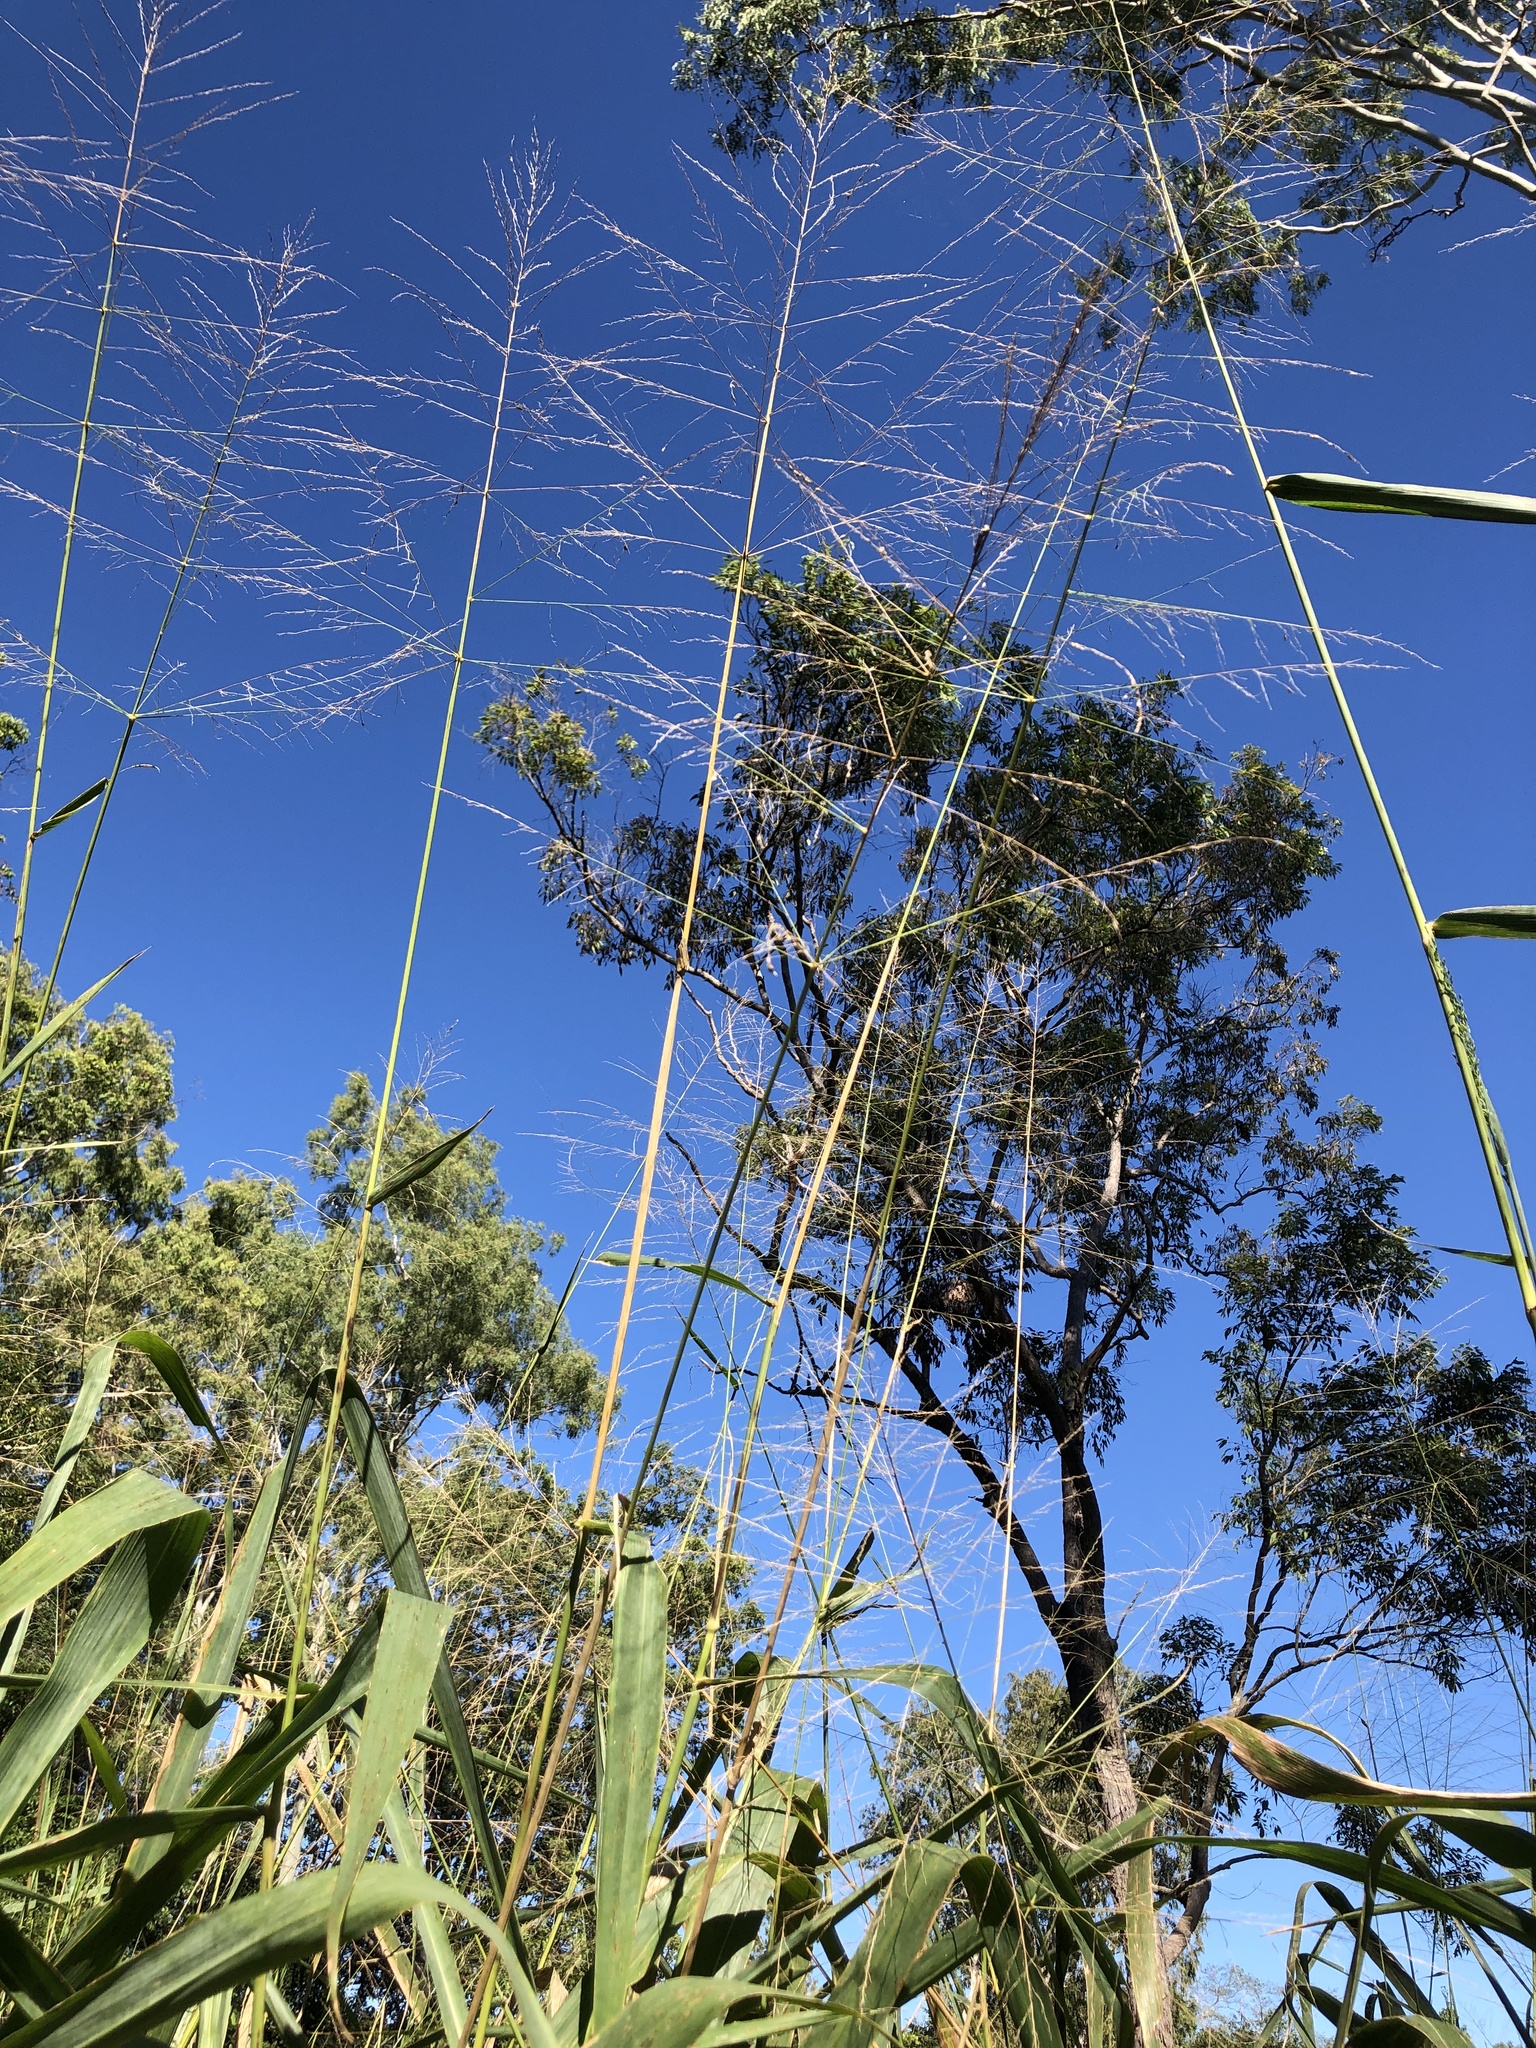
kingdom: Plantae
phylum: Tracheophyta
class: Liliopsida
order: Poales
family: Poaceae
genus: Megathyrsus
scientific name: Megathyrsus maximus
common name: Guineagrass
